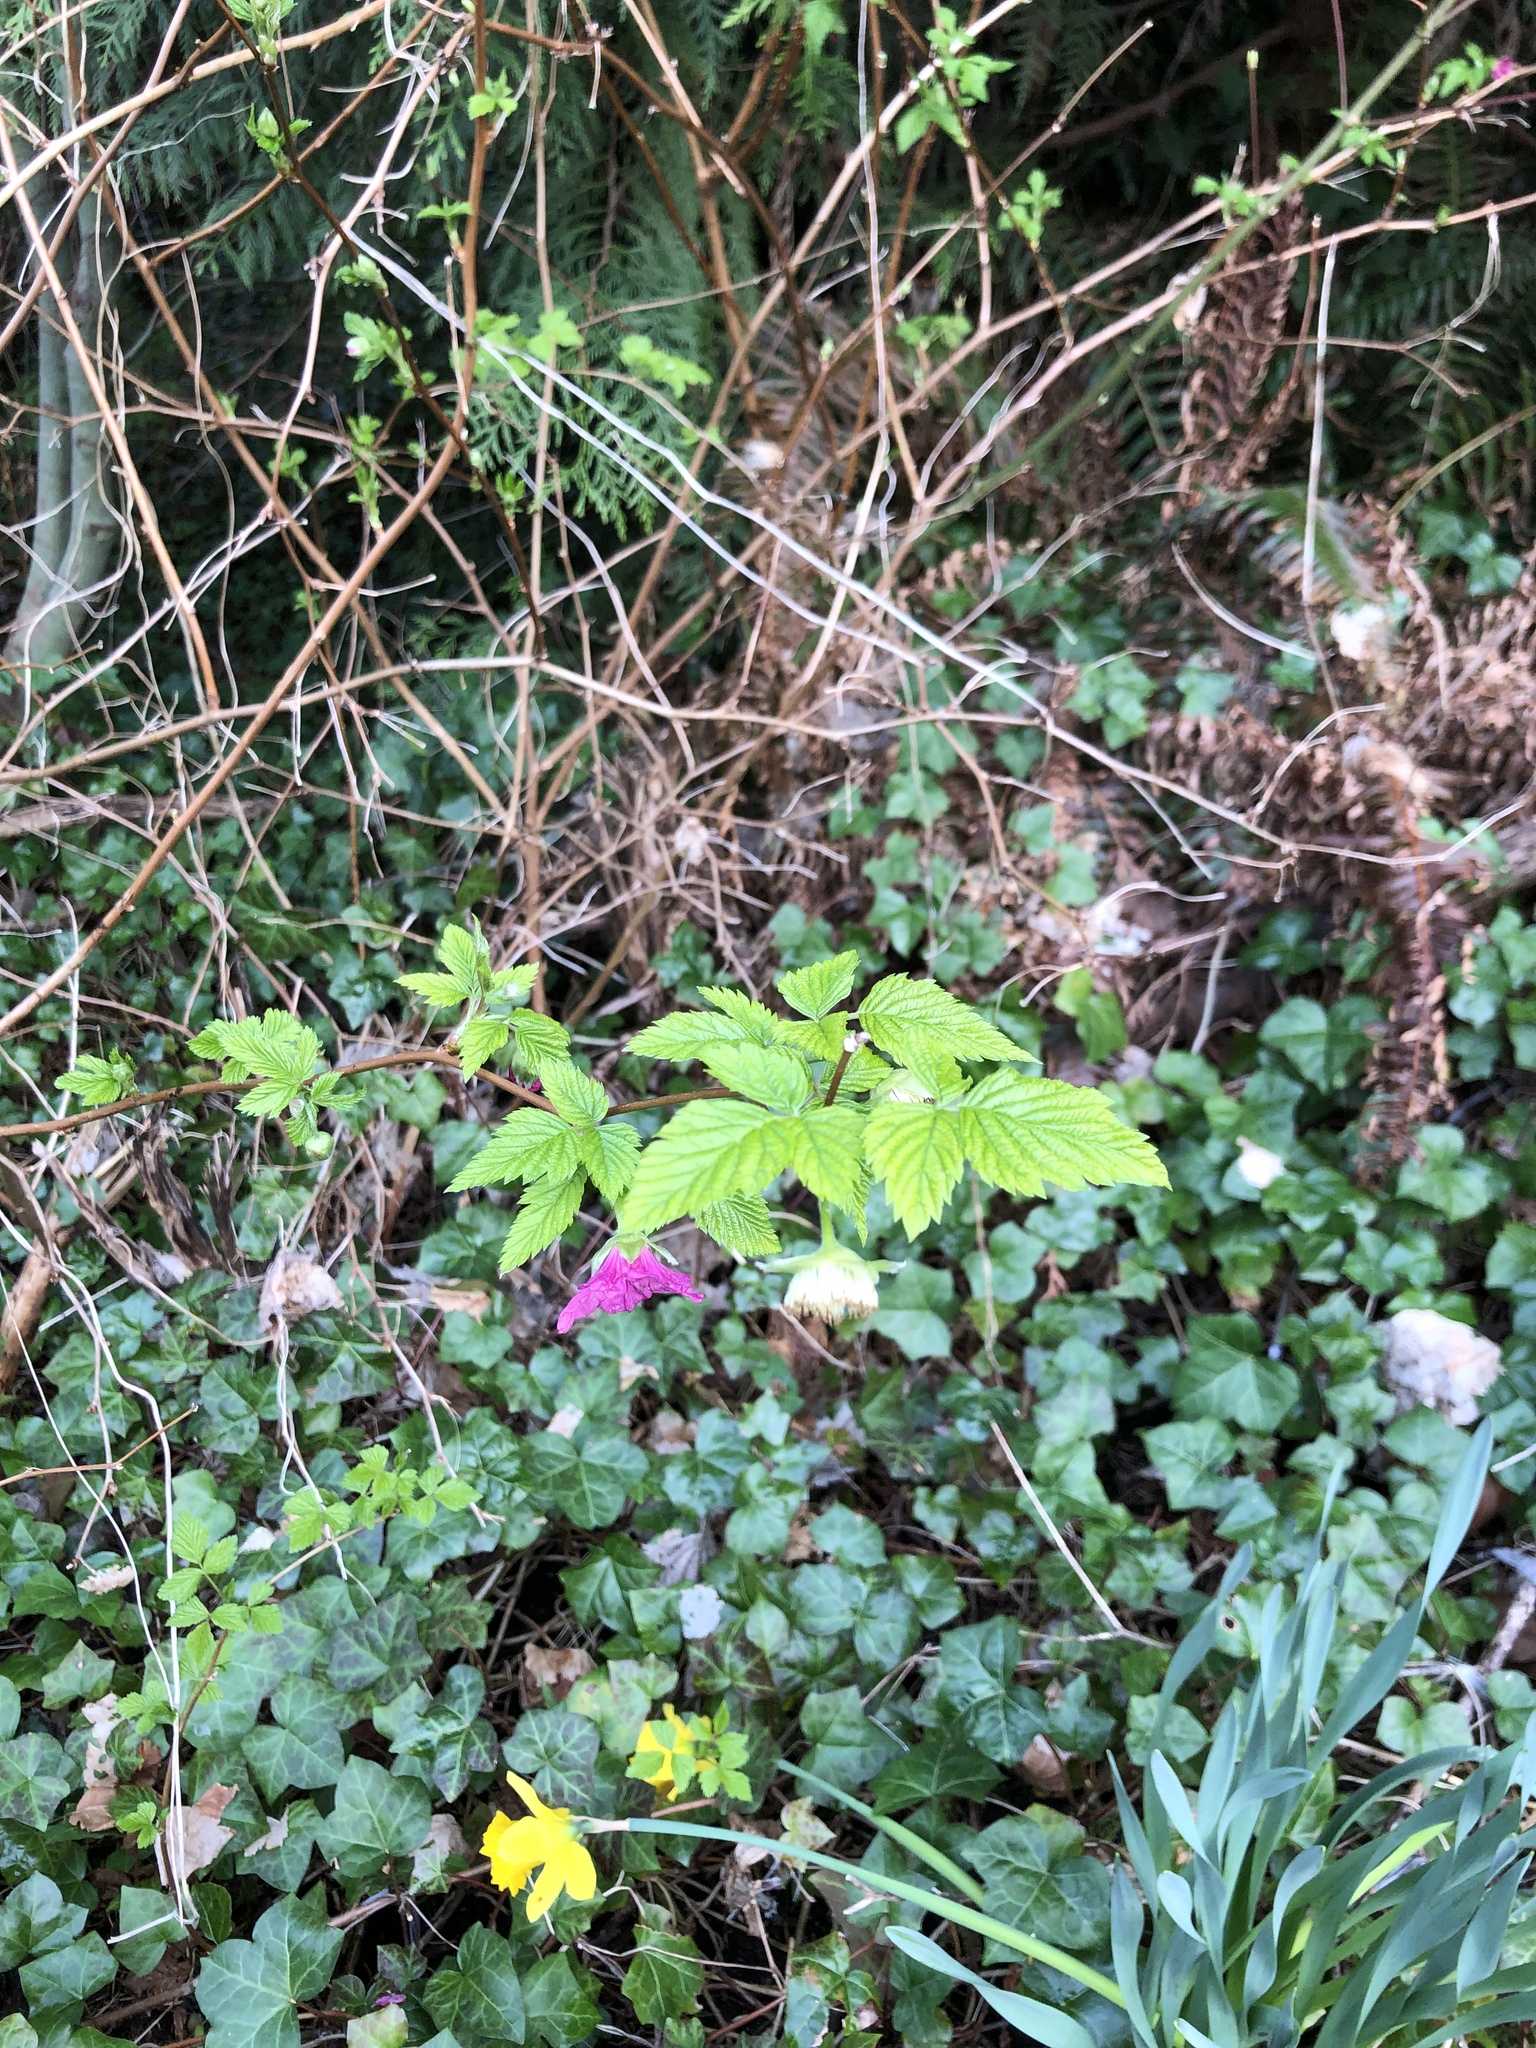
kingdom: Plantae
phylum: Tracheophyta
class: Magnoliopsida
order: Rosales
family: Rosaceae
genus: Rubus
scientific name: Rubus spectabilis
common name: Salmonberry
